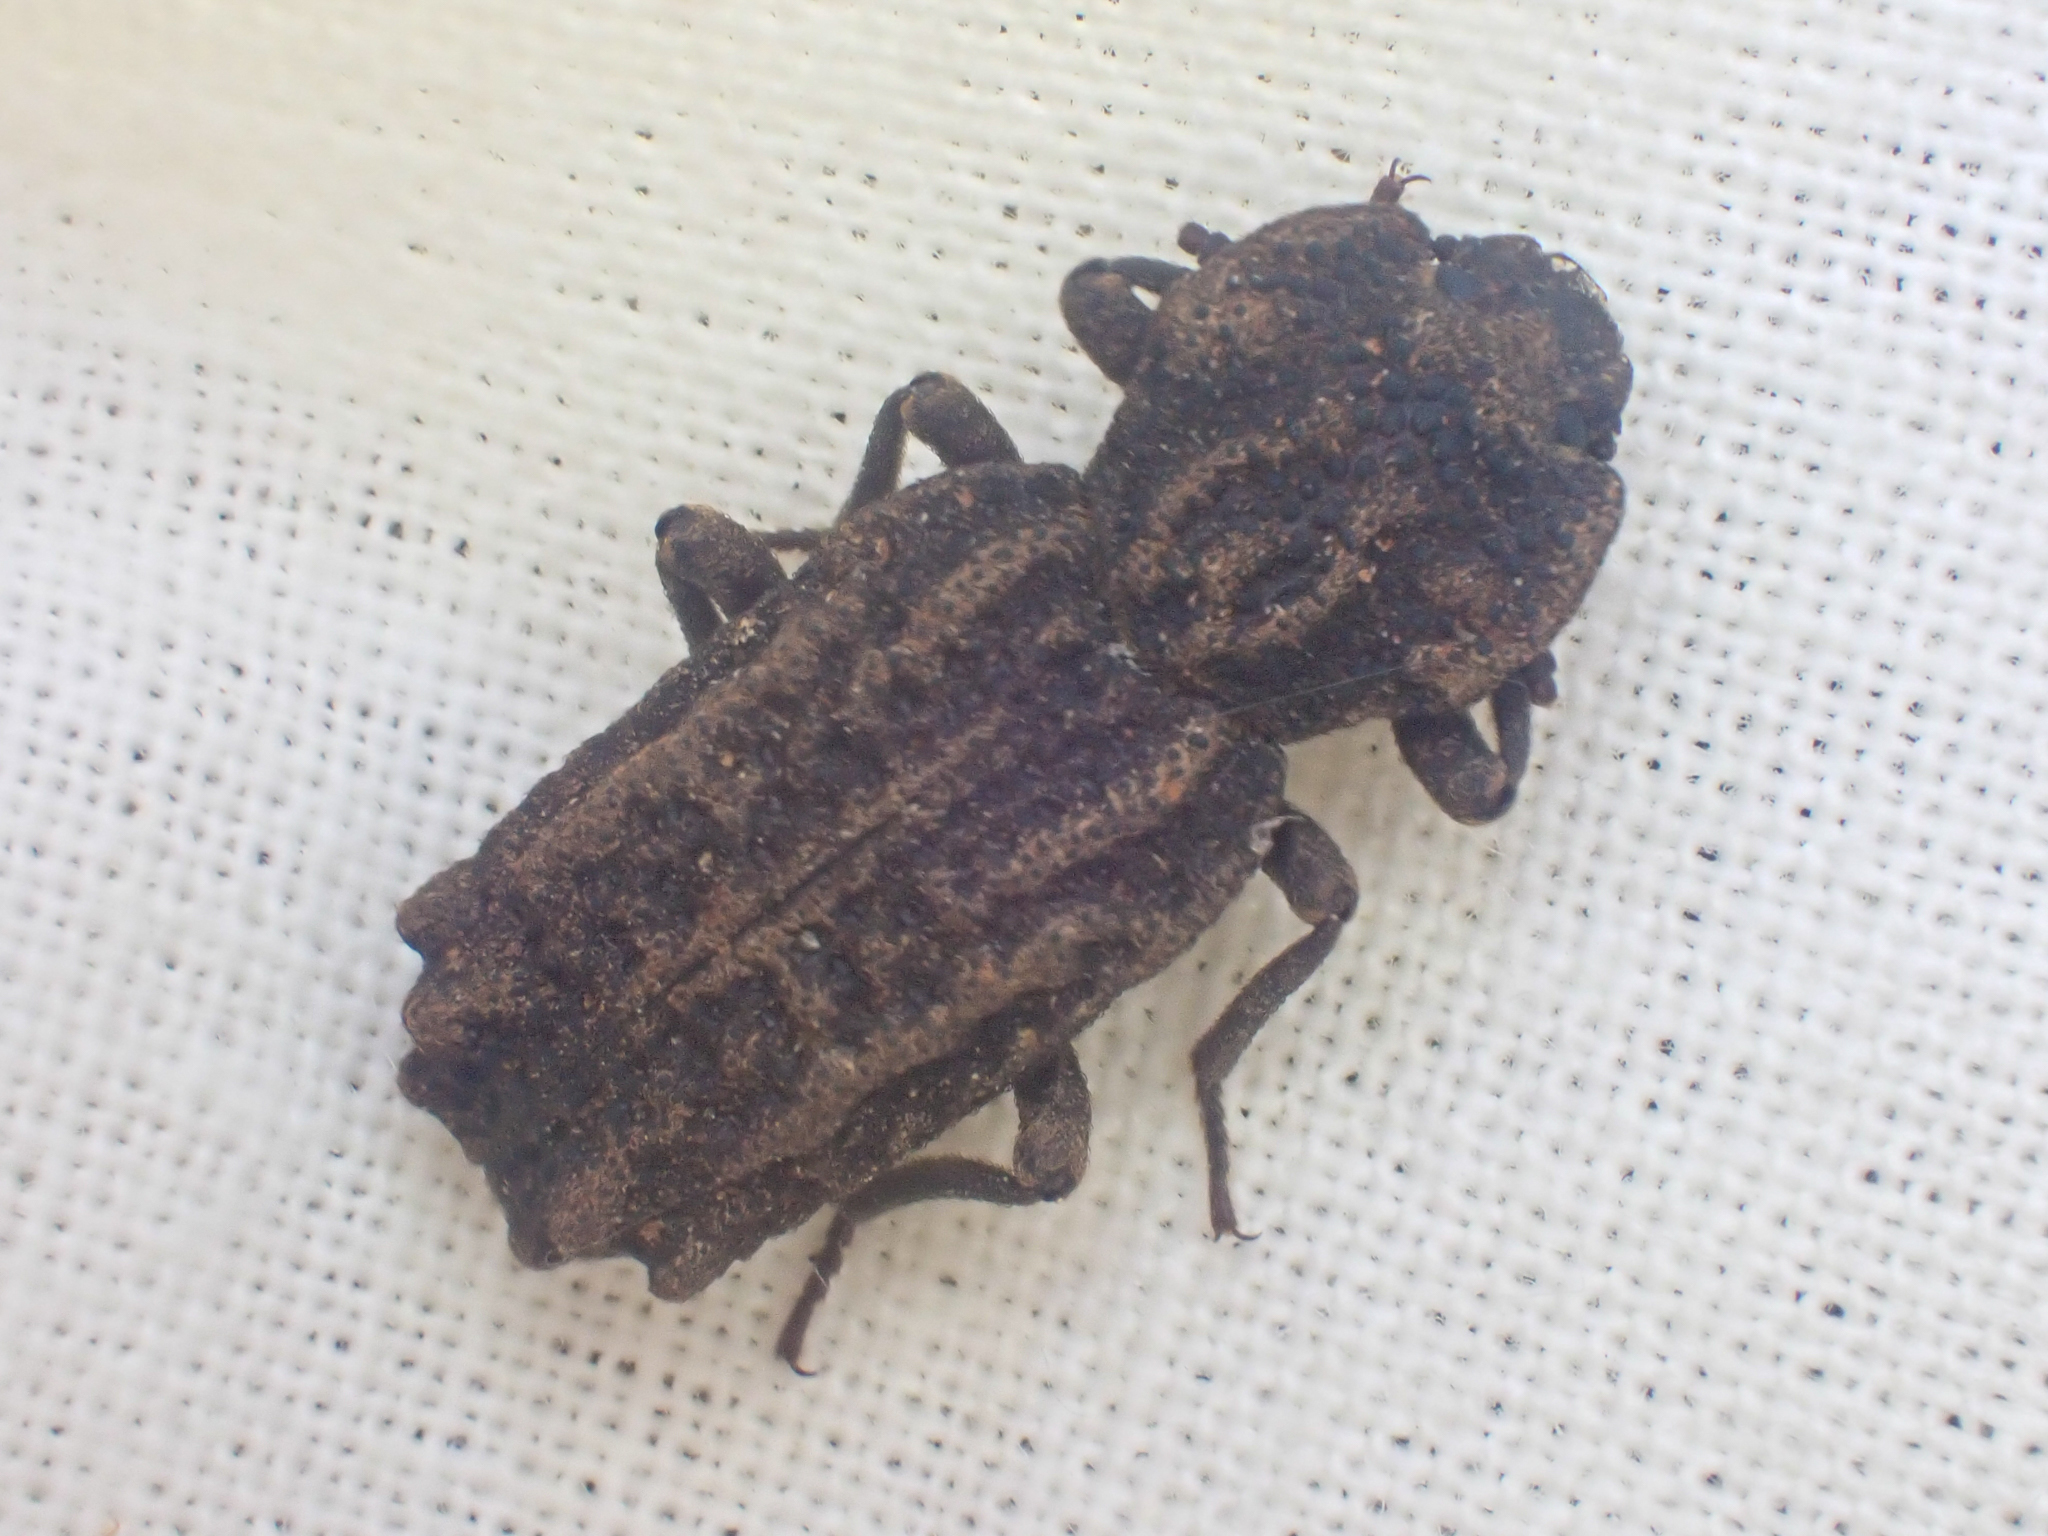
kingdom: Animalia
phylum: Arthropoda
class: Insecta
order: Coleoptera
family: Zopheridae
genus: Phellopsis
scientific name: Phellopsis porcata
